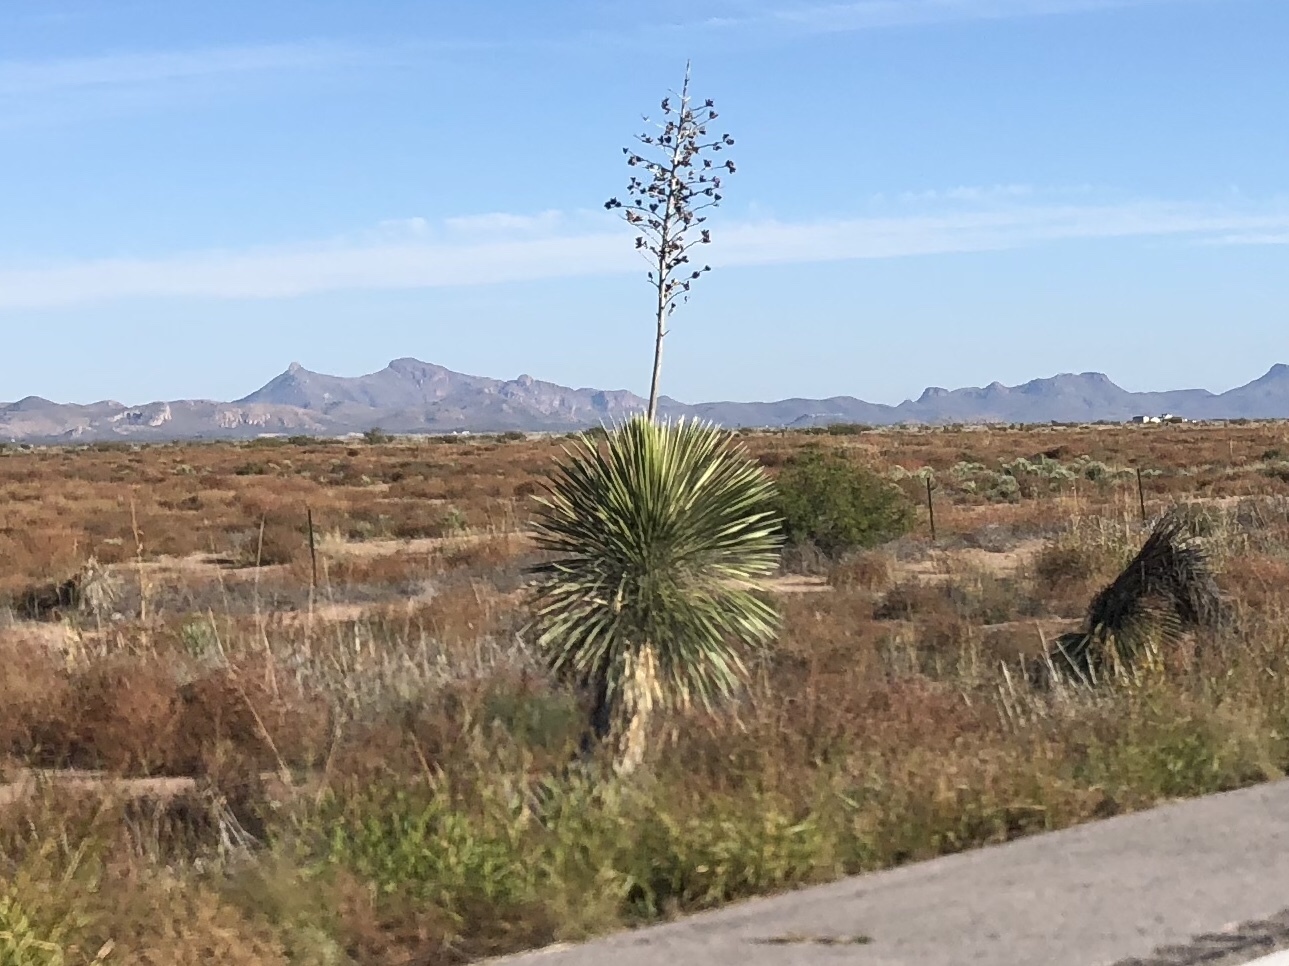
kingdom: Plantae
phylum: Tracheophyta
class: Liliopsida
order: Asparagales
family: Asparagaceae
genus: Yucca
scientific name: Yucca elata
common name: Palmella
